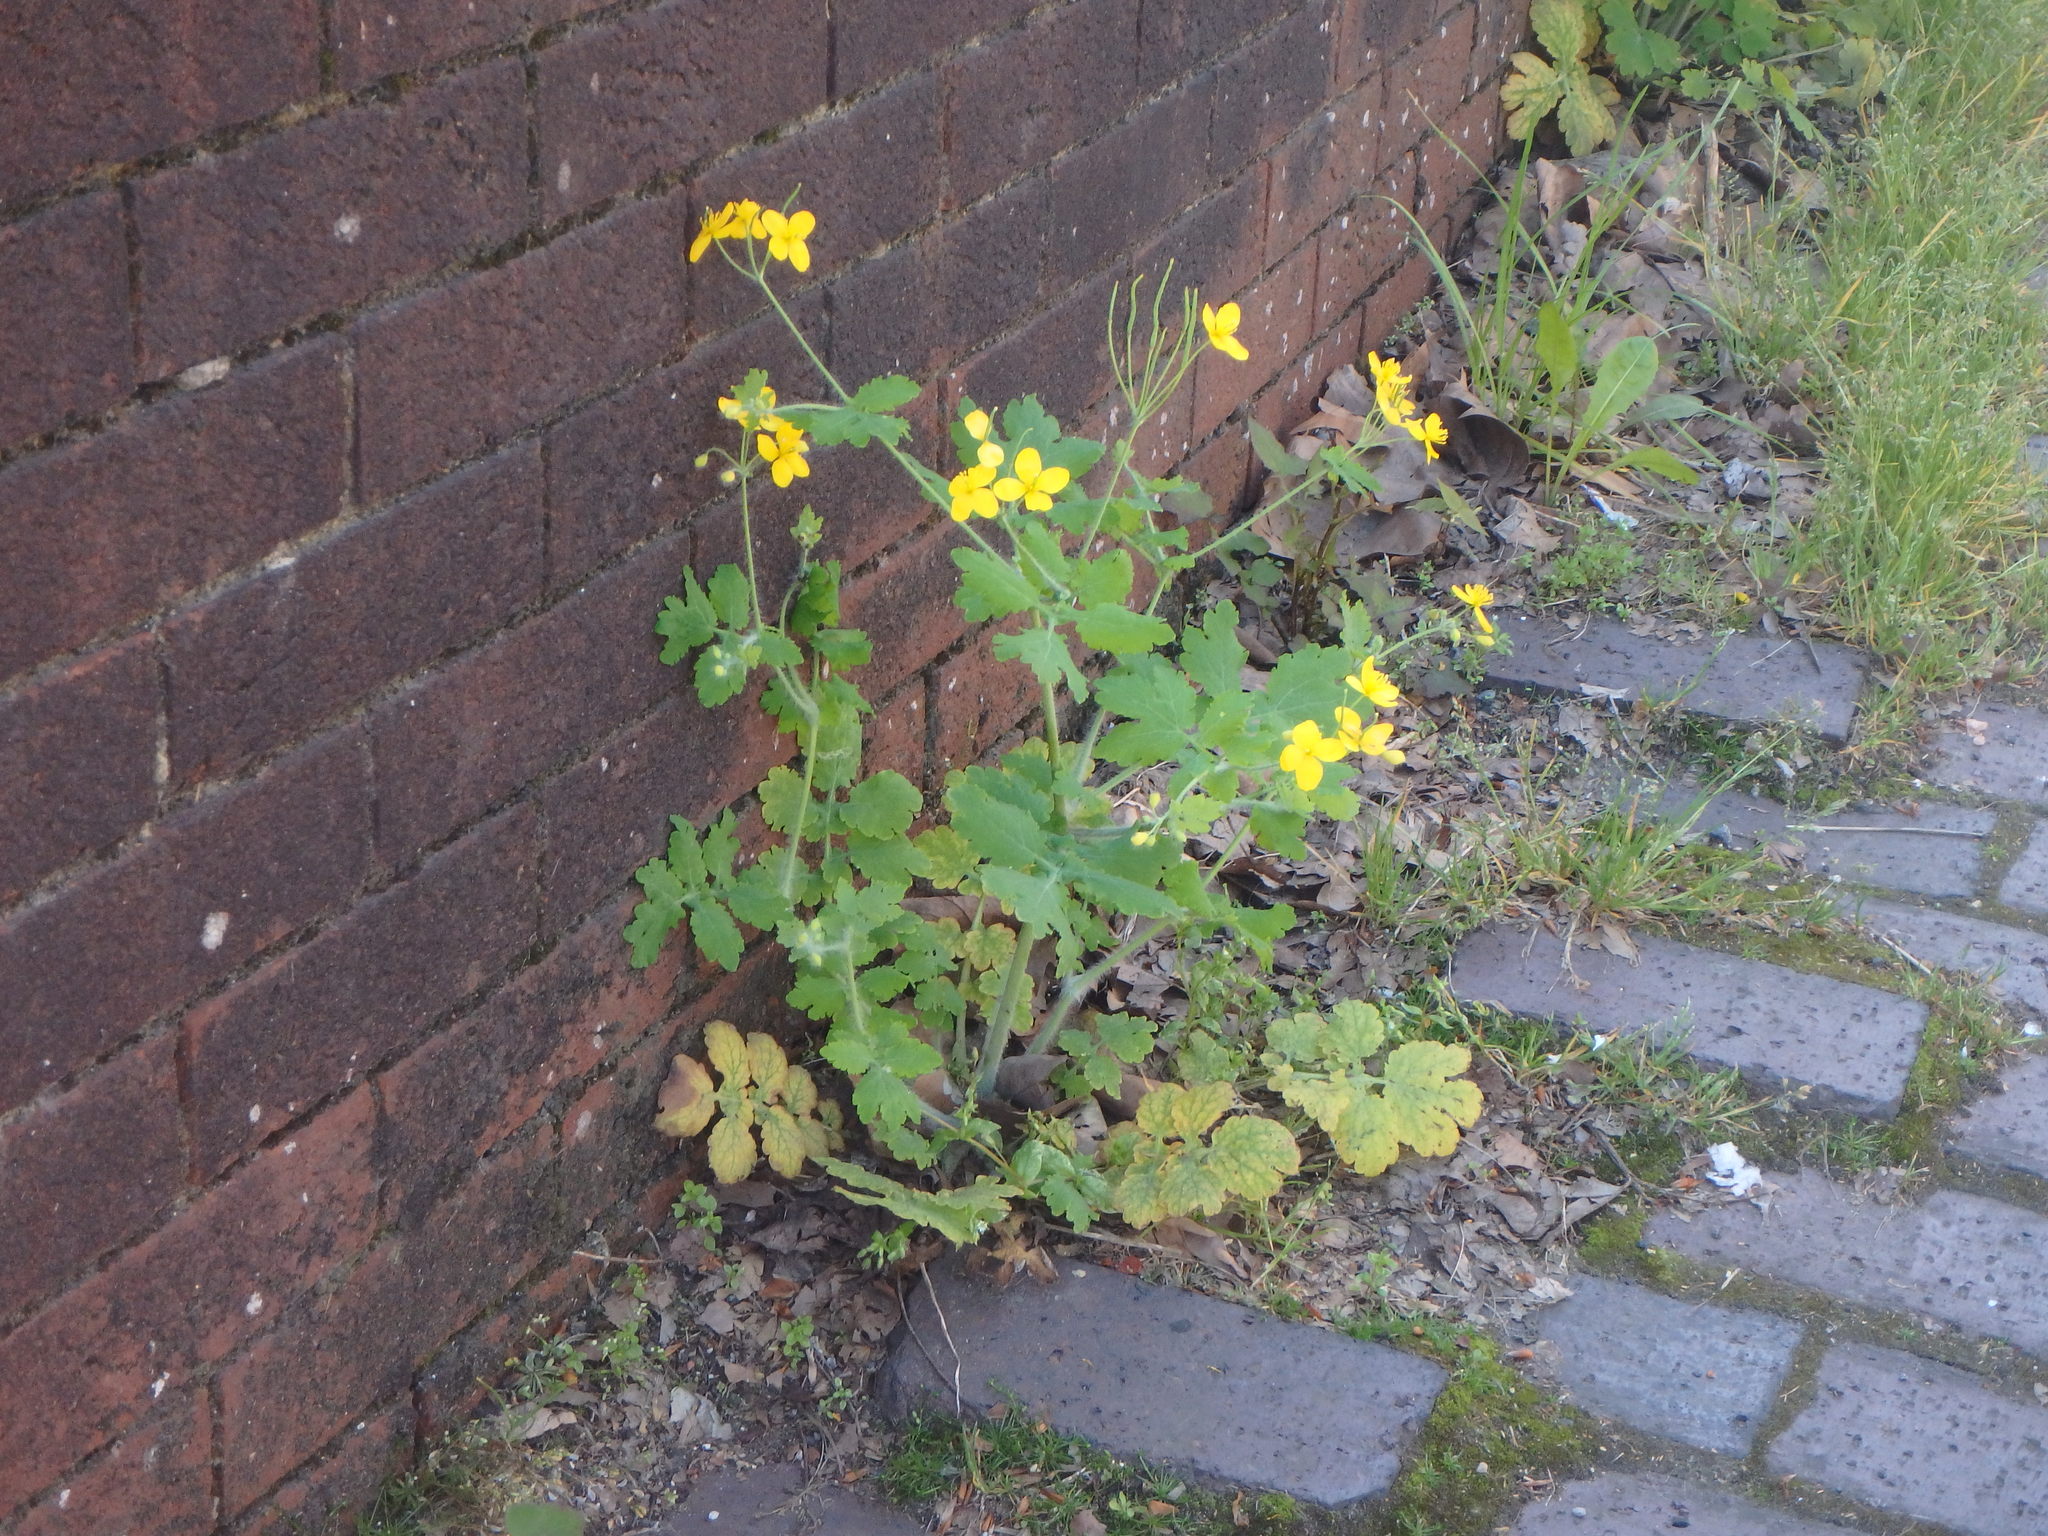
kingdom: Plantae
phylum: Tracheophyta
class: Magnoliopsida
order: Ranunculales
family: Papaveraceae
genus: Chelidonium
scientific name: Chelidonium majus
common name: Greater celandine
